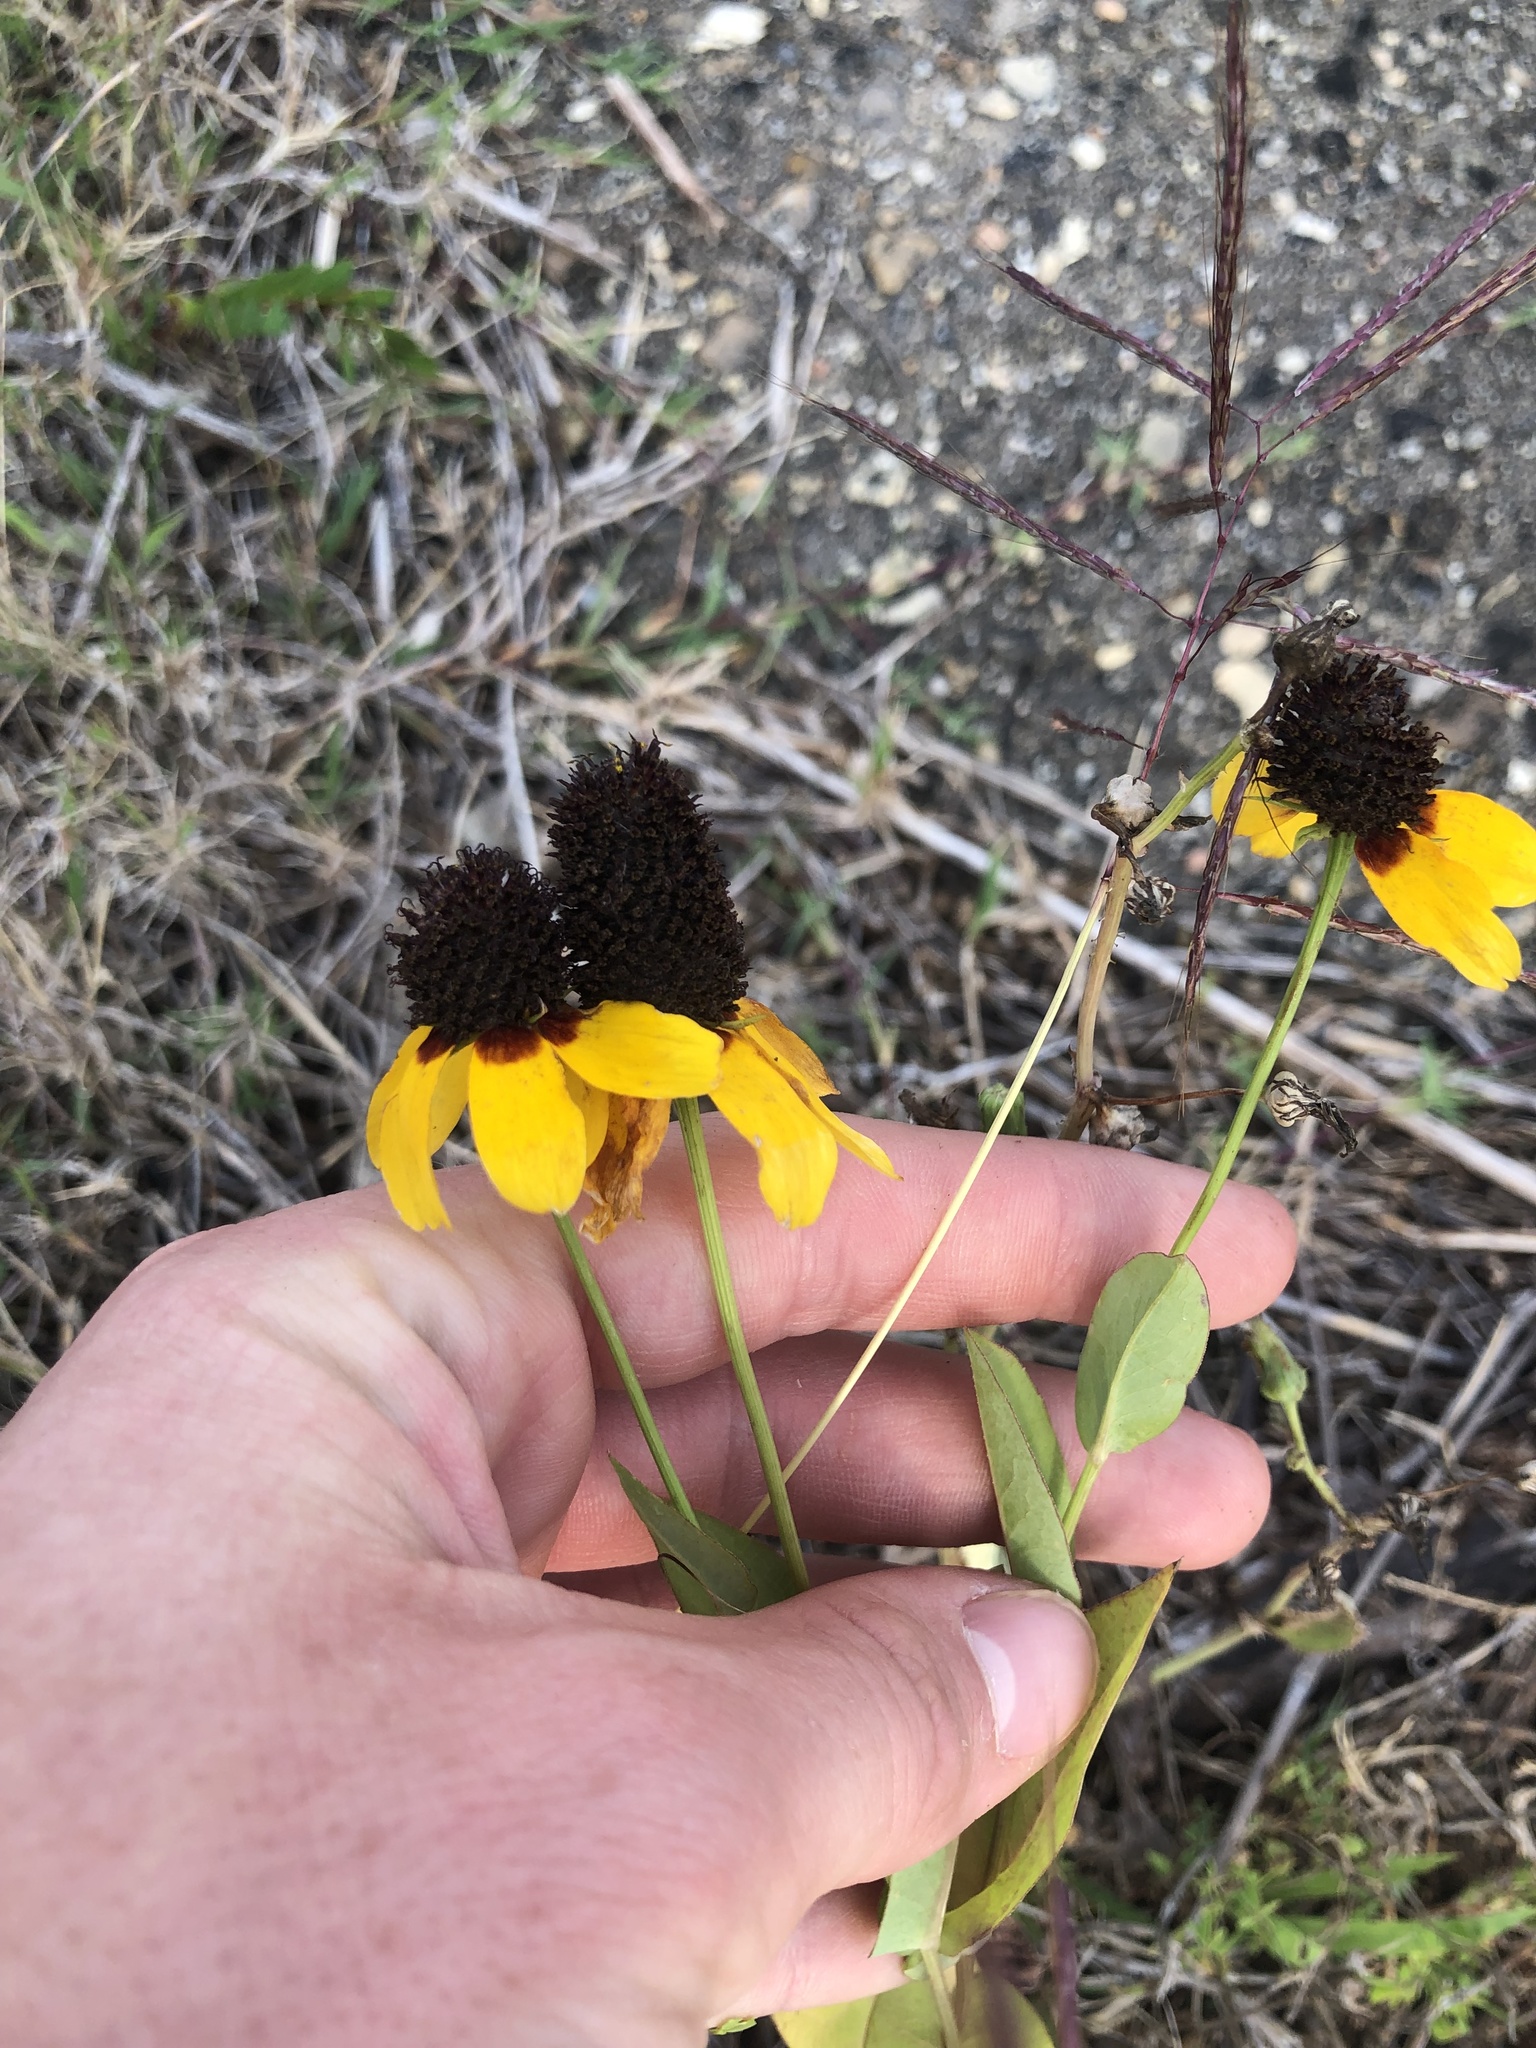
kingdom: Plantae
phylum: Tracheophyta
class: Magnoliopsida
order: Asterales
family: Asteraceae
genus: Rudbeckia
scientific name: Rudbeckia amplexicaulis
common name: Clasping-leaf coneflower
